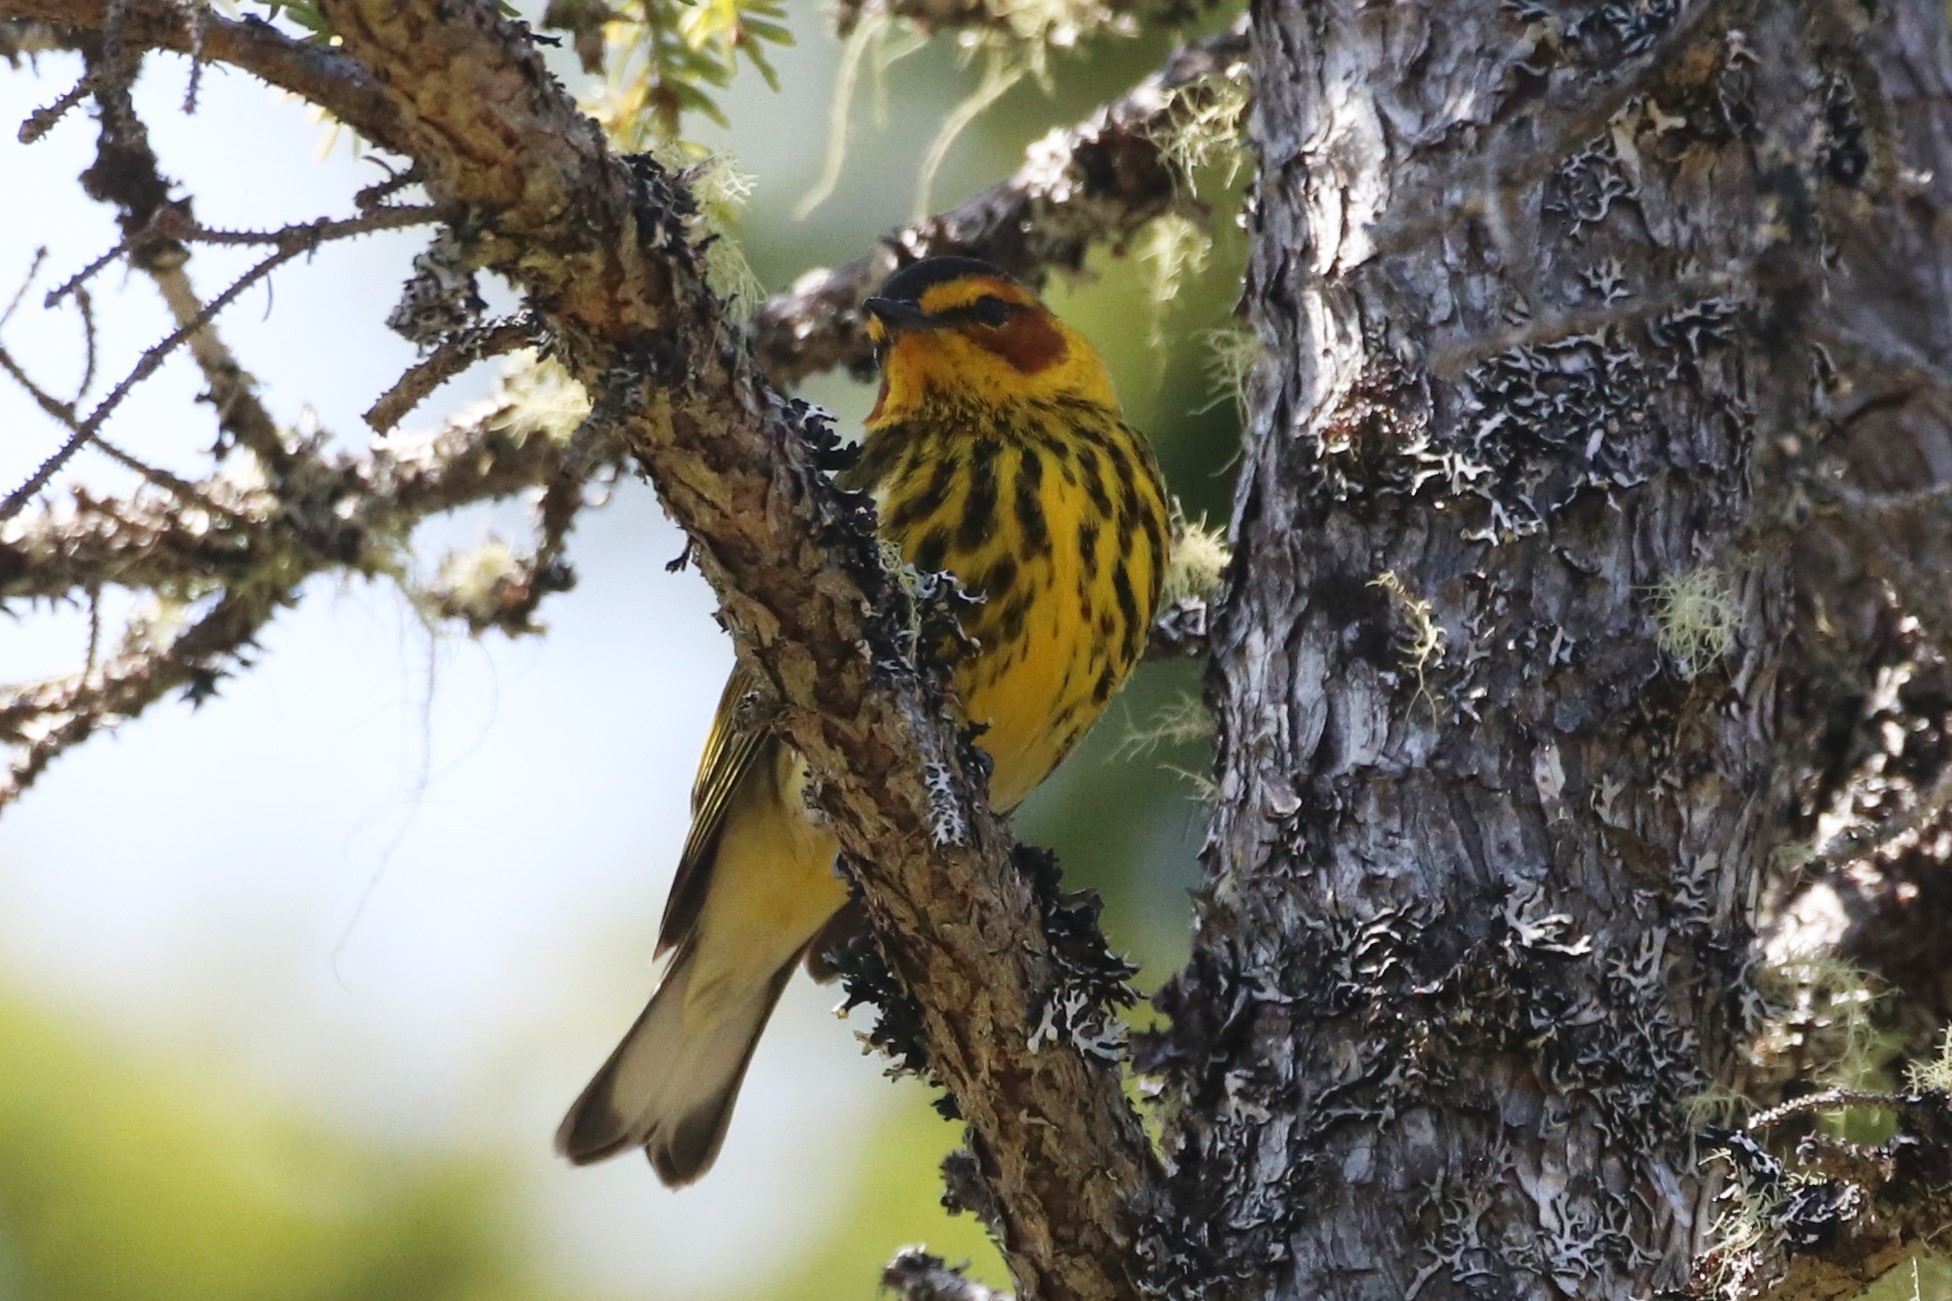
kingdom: Animalia
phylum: Chordata
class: Aves
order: Passeriformes
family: Parulidae
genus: Setophaga
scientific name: Setophaga tigrina
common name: Cape may warbler
